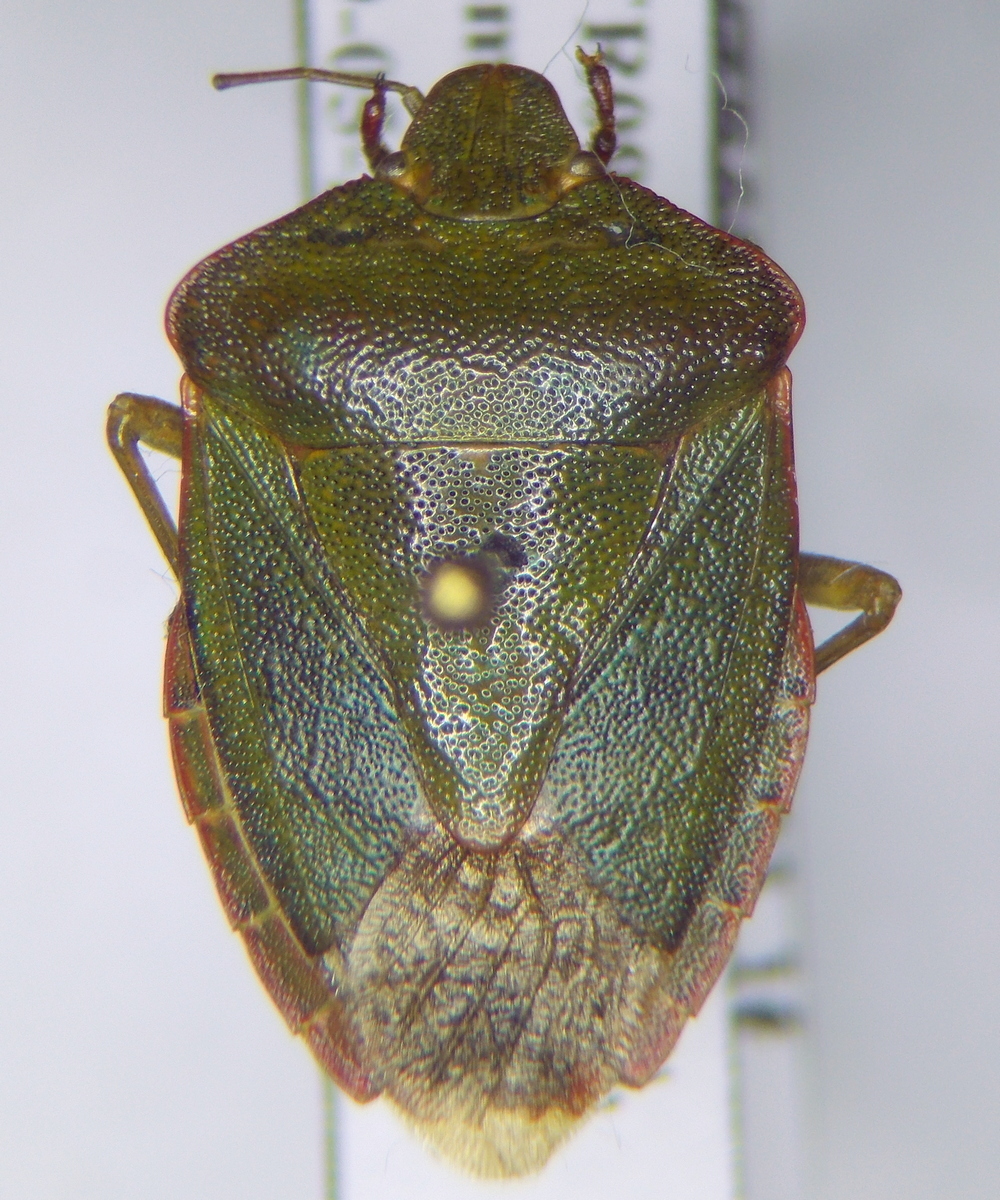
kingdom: Animalia
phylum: Arthropoda
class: Insecta
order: Hemiptera
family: Pentatomidae
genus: Palomena
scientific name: Palomena prasina
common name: Green shieldbug
